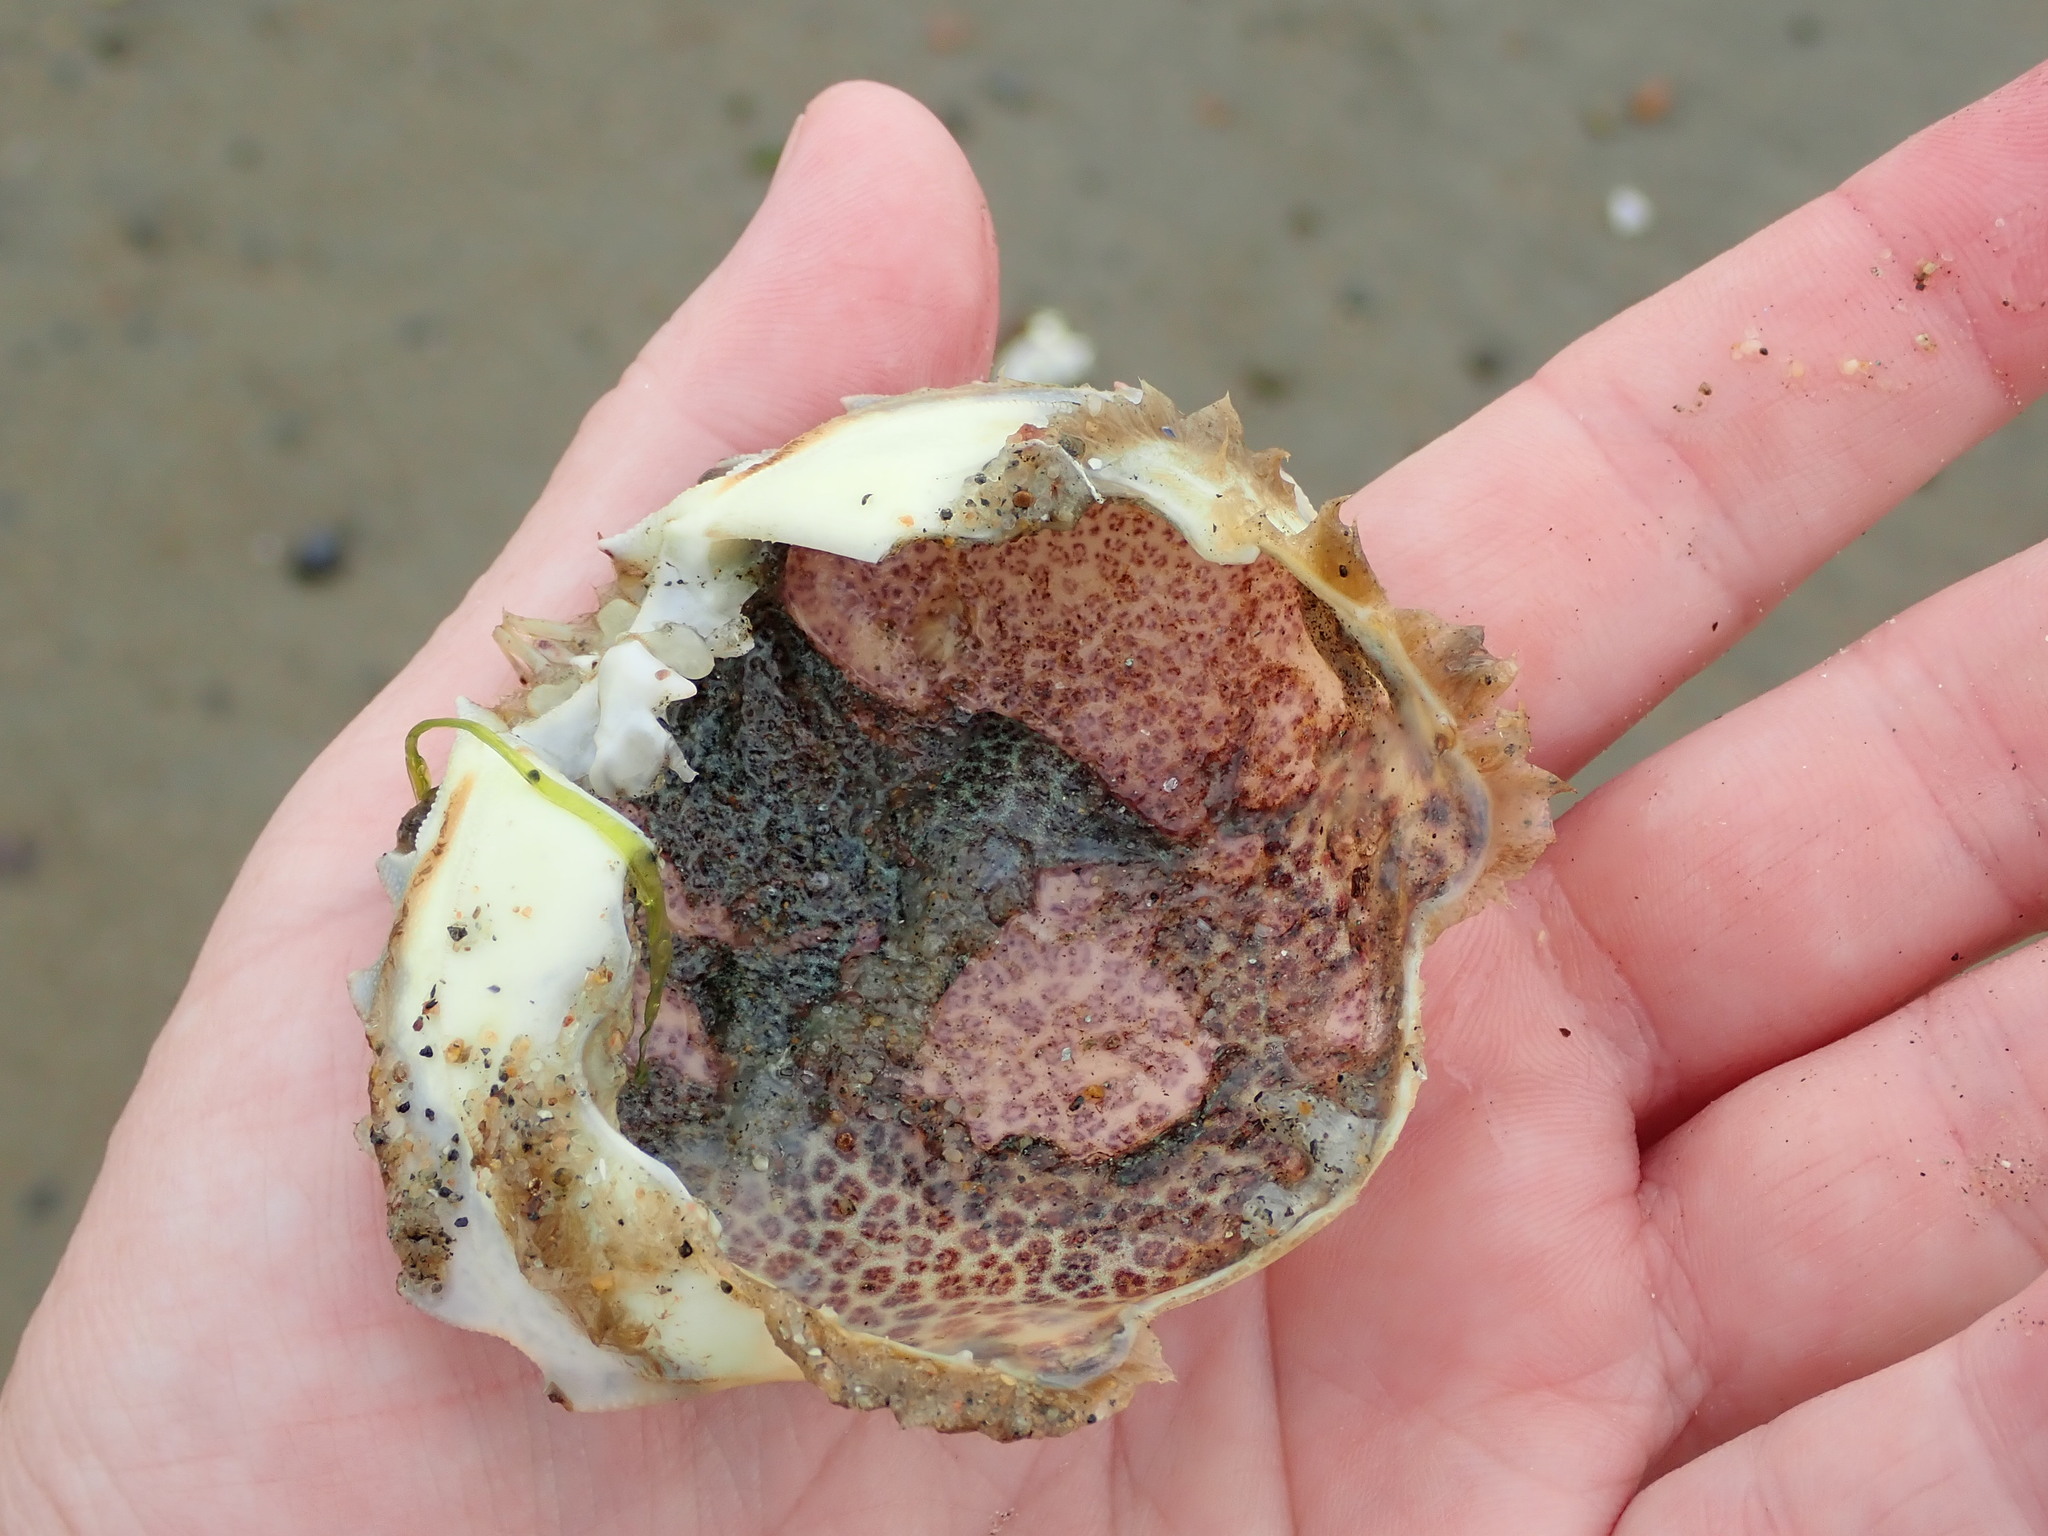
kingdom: Animalia
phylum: Arthropoda
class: Malacostraca
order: Decapoda
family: Ovalipidae
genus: Ovalipes
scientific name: Ovalipes ocellatus
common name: Lady crab
